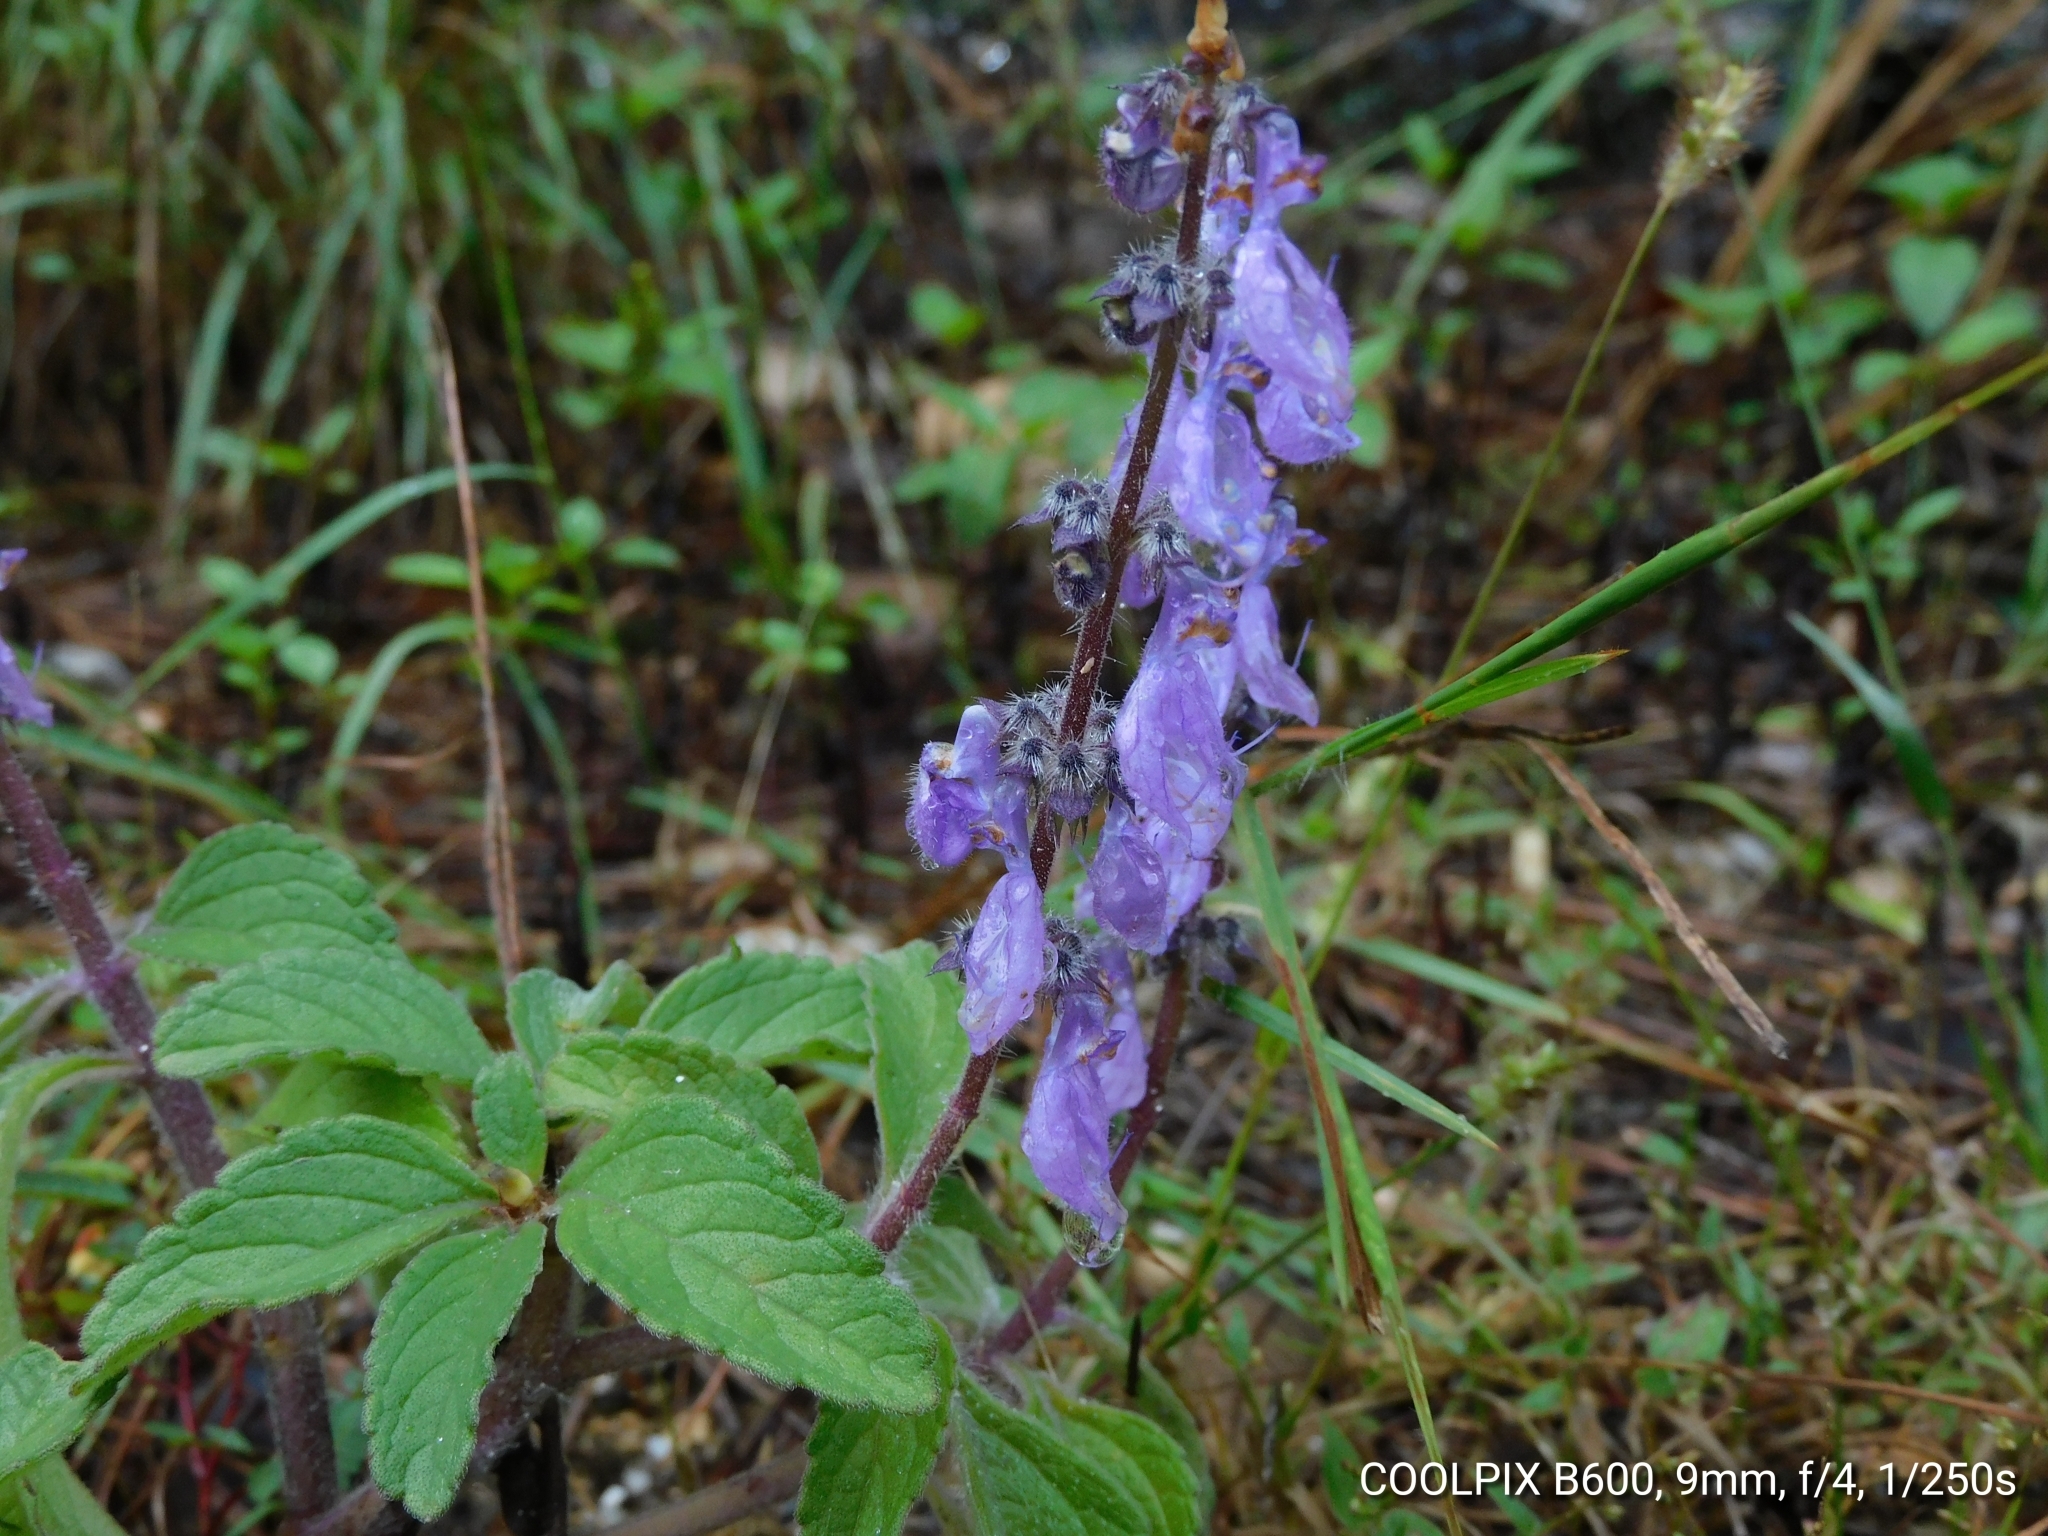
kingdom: Plantae
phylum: Tracheophyta
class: Magnoliopsida
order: Lamiales
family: Lamiaceae
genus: Coleus
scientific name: Coleus barbatus
